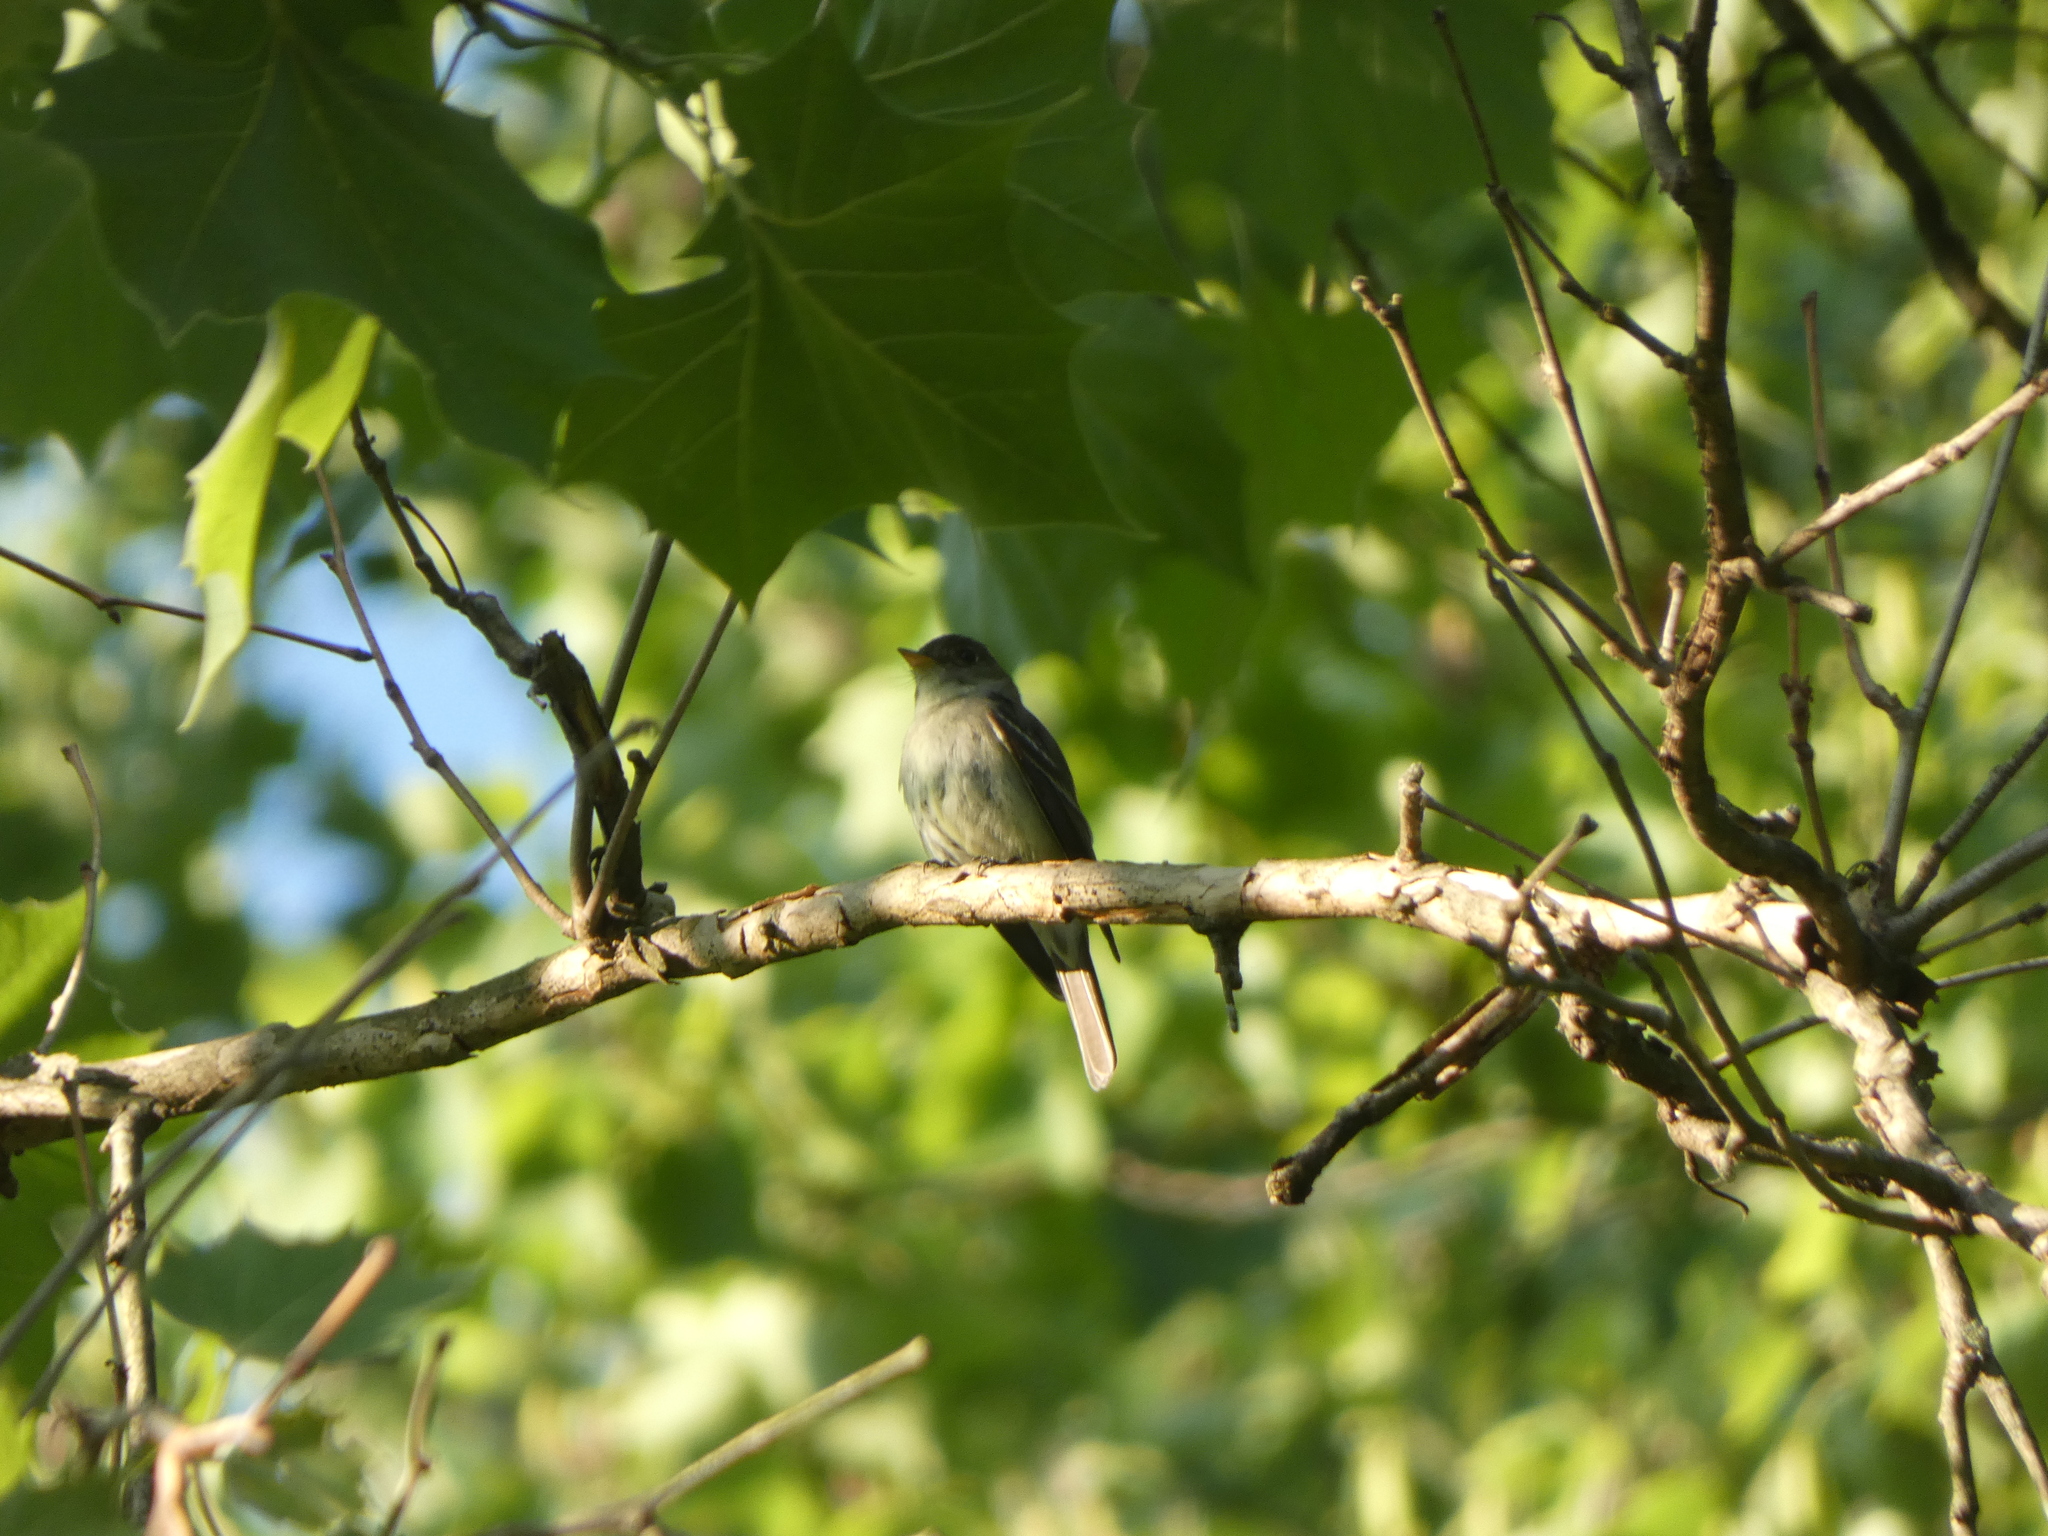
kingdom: Animalia
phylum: Chordata
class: Aves
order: Passeriformes
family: Tyrannidae
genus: Contopus
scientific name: Contopus virens
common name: Eastern wood-pewee
